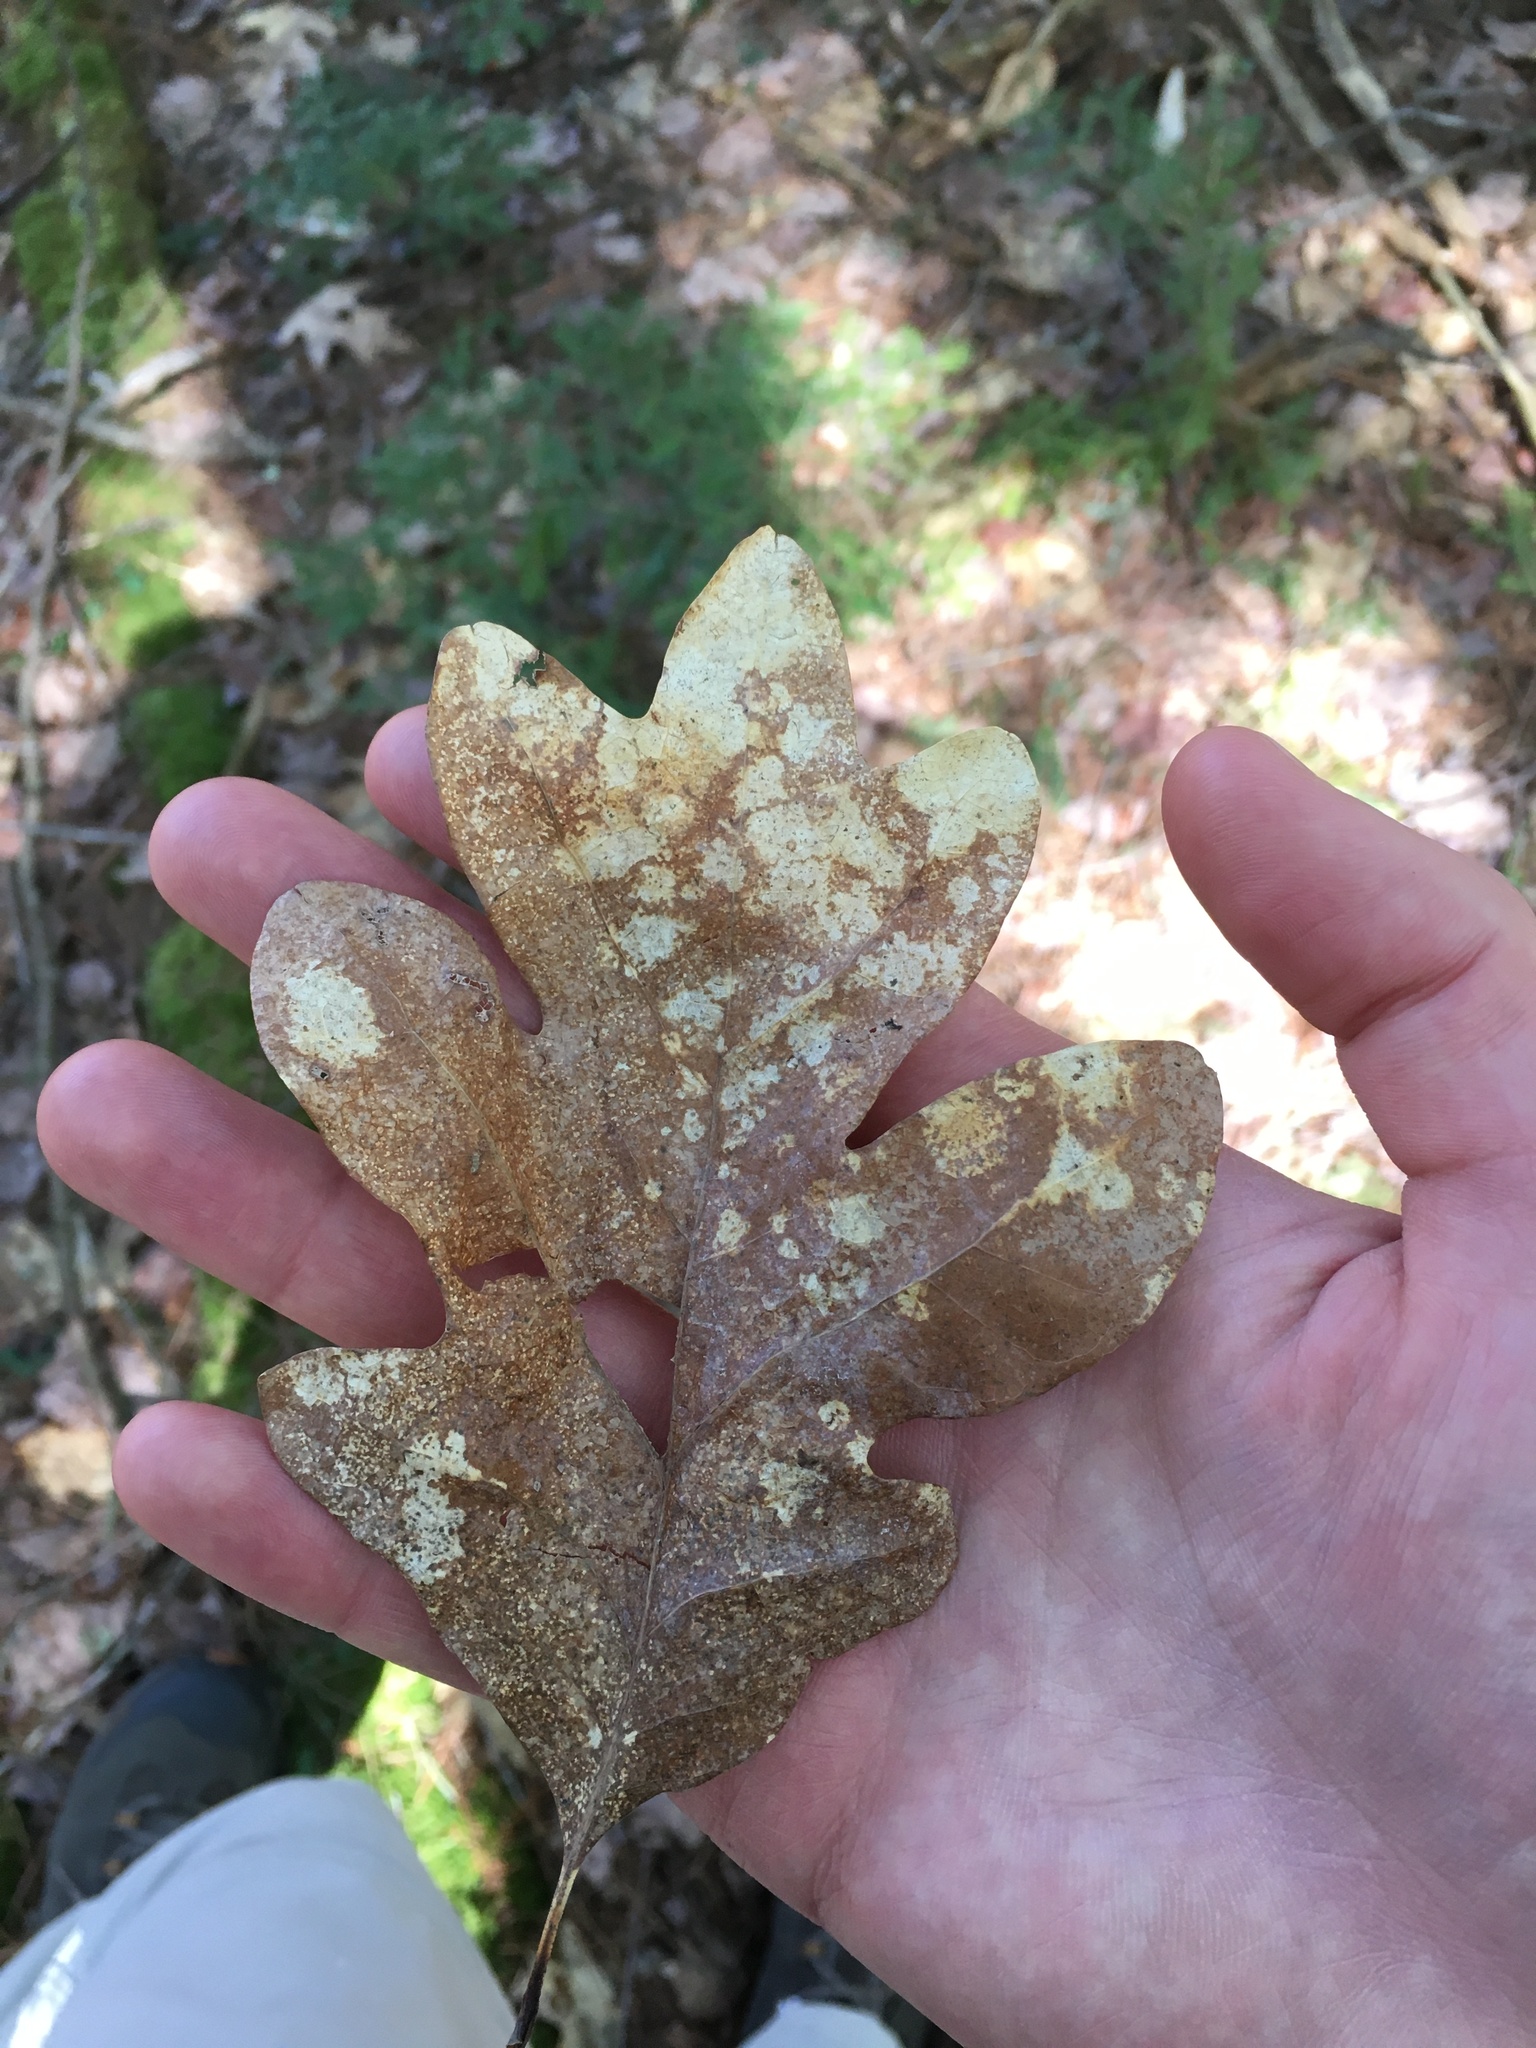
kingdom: Plantae
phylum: Tracheophyta
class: Magnoliopsida
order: Fagales
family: Fagaceae
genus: Quercus
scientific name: Quercus alba
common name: White oak
